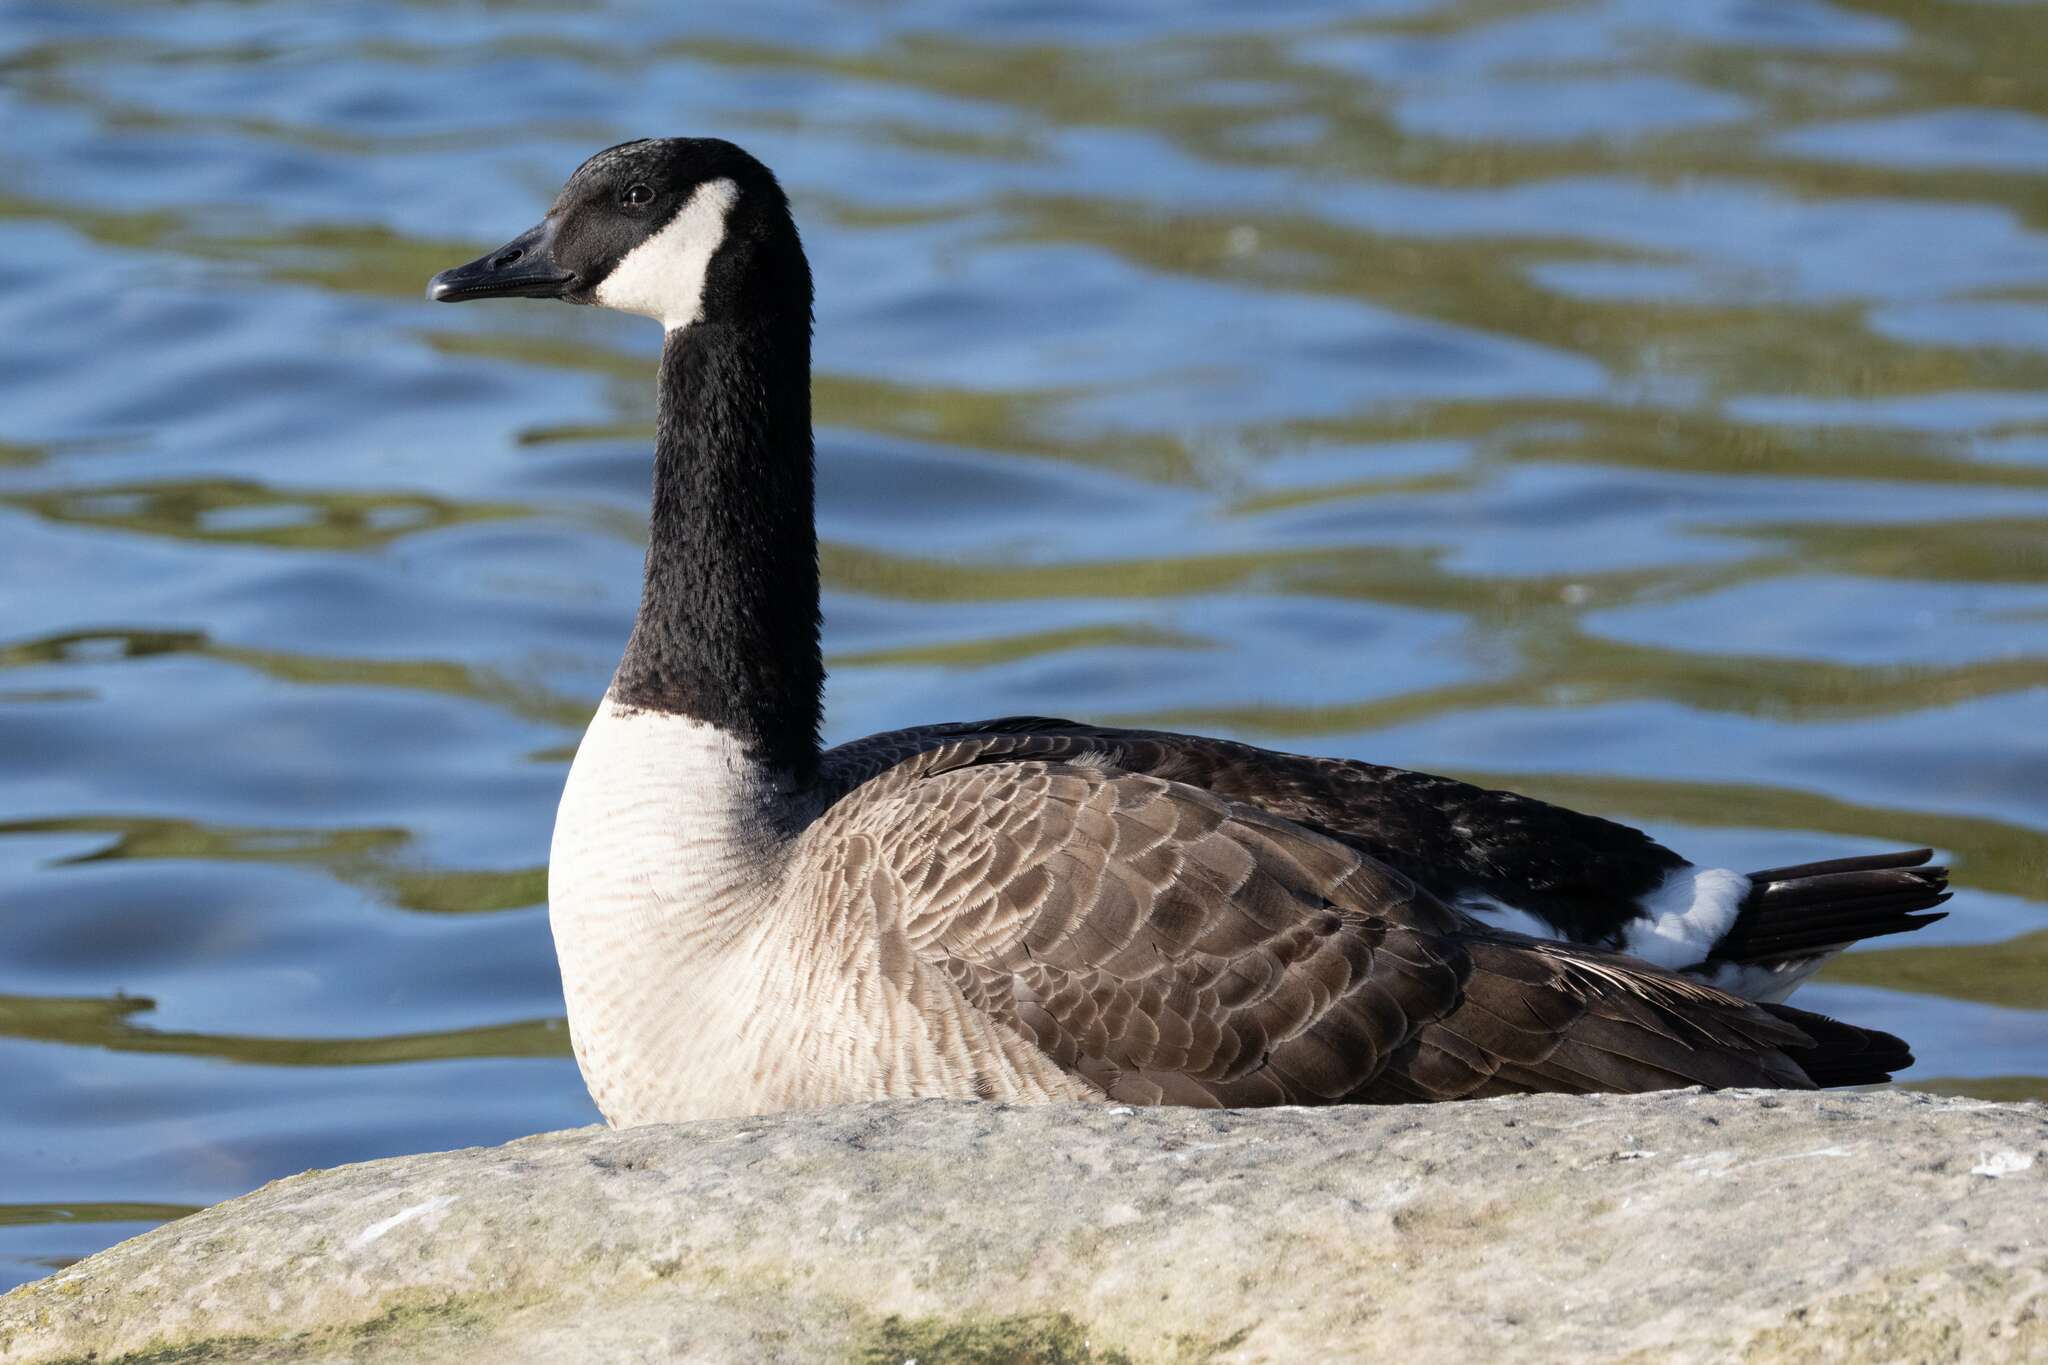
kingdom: Animalia
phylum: Chordata
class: Aves
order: Anseriformes
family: Anatidae
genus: Branta
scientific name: Branta canadensis
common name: Canada goose
